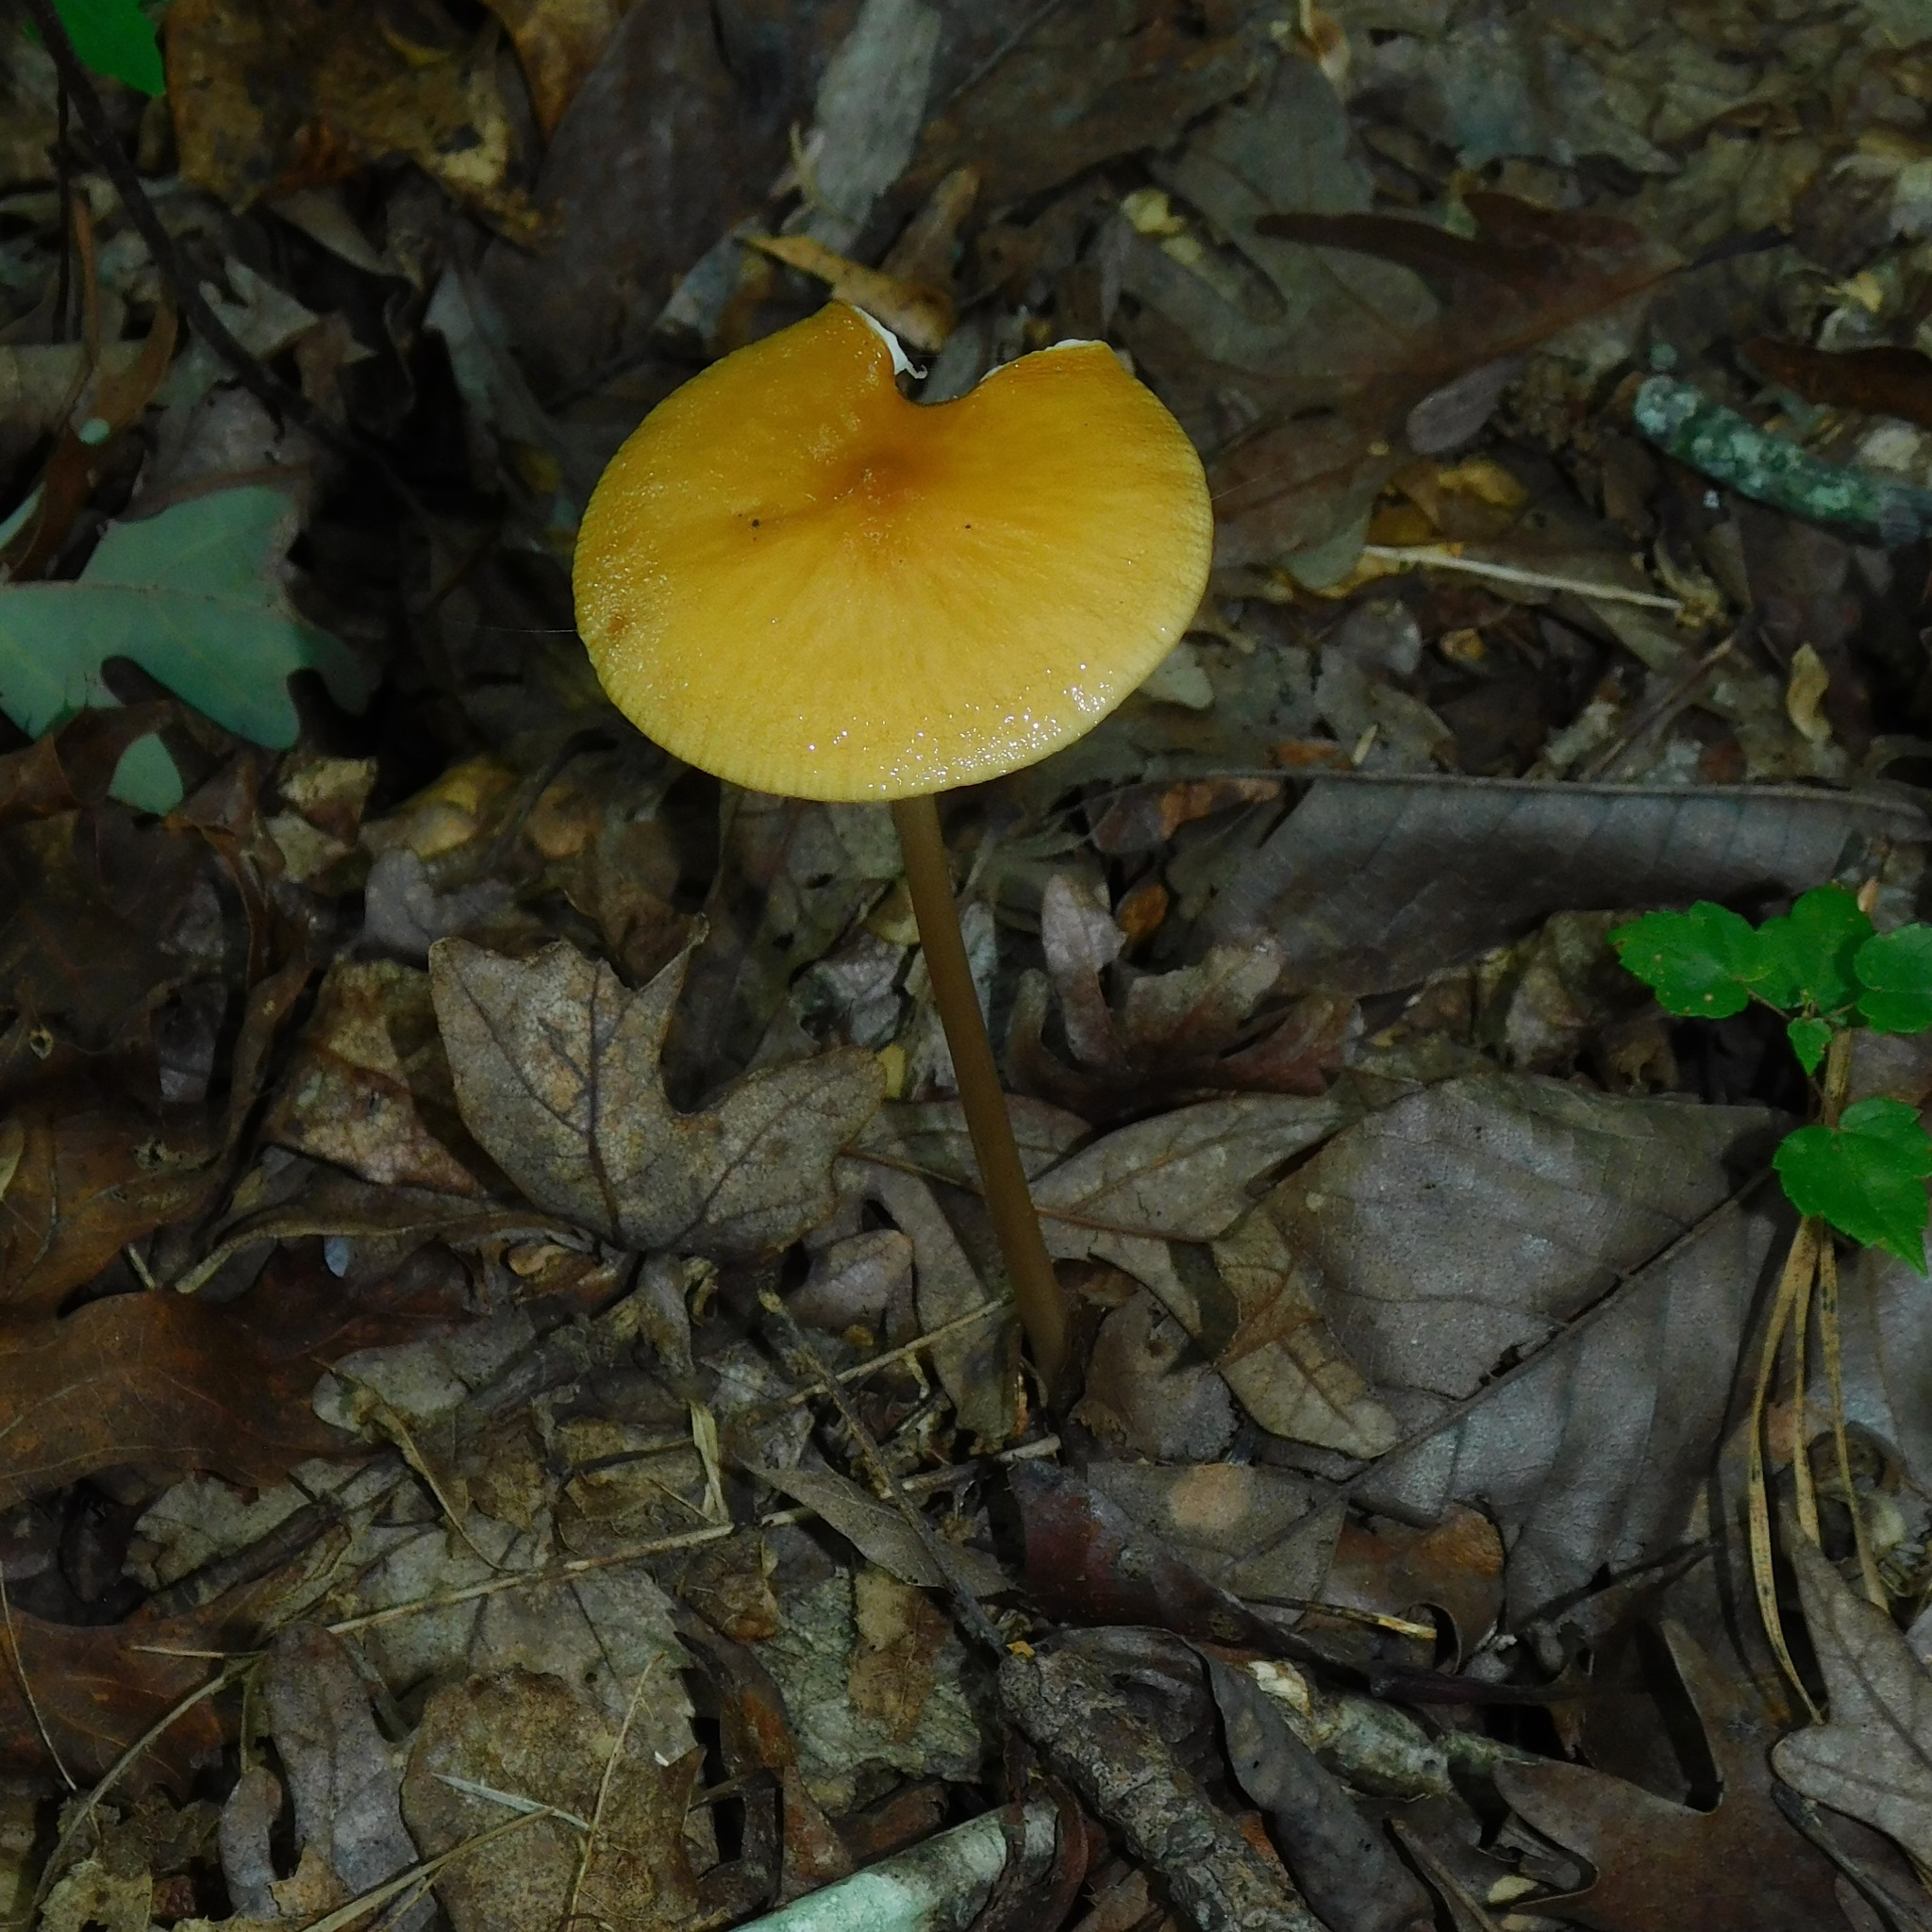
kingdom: Fungi
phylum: Basidiomycota
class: Agaricomycetes
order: Agaricales
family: Physalacriaceae
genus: Hymenopellis
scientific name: Hymenopellis furfuracea
